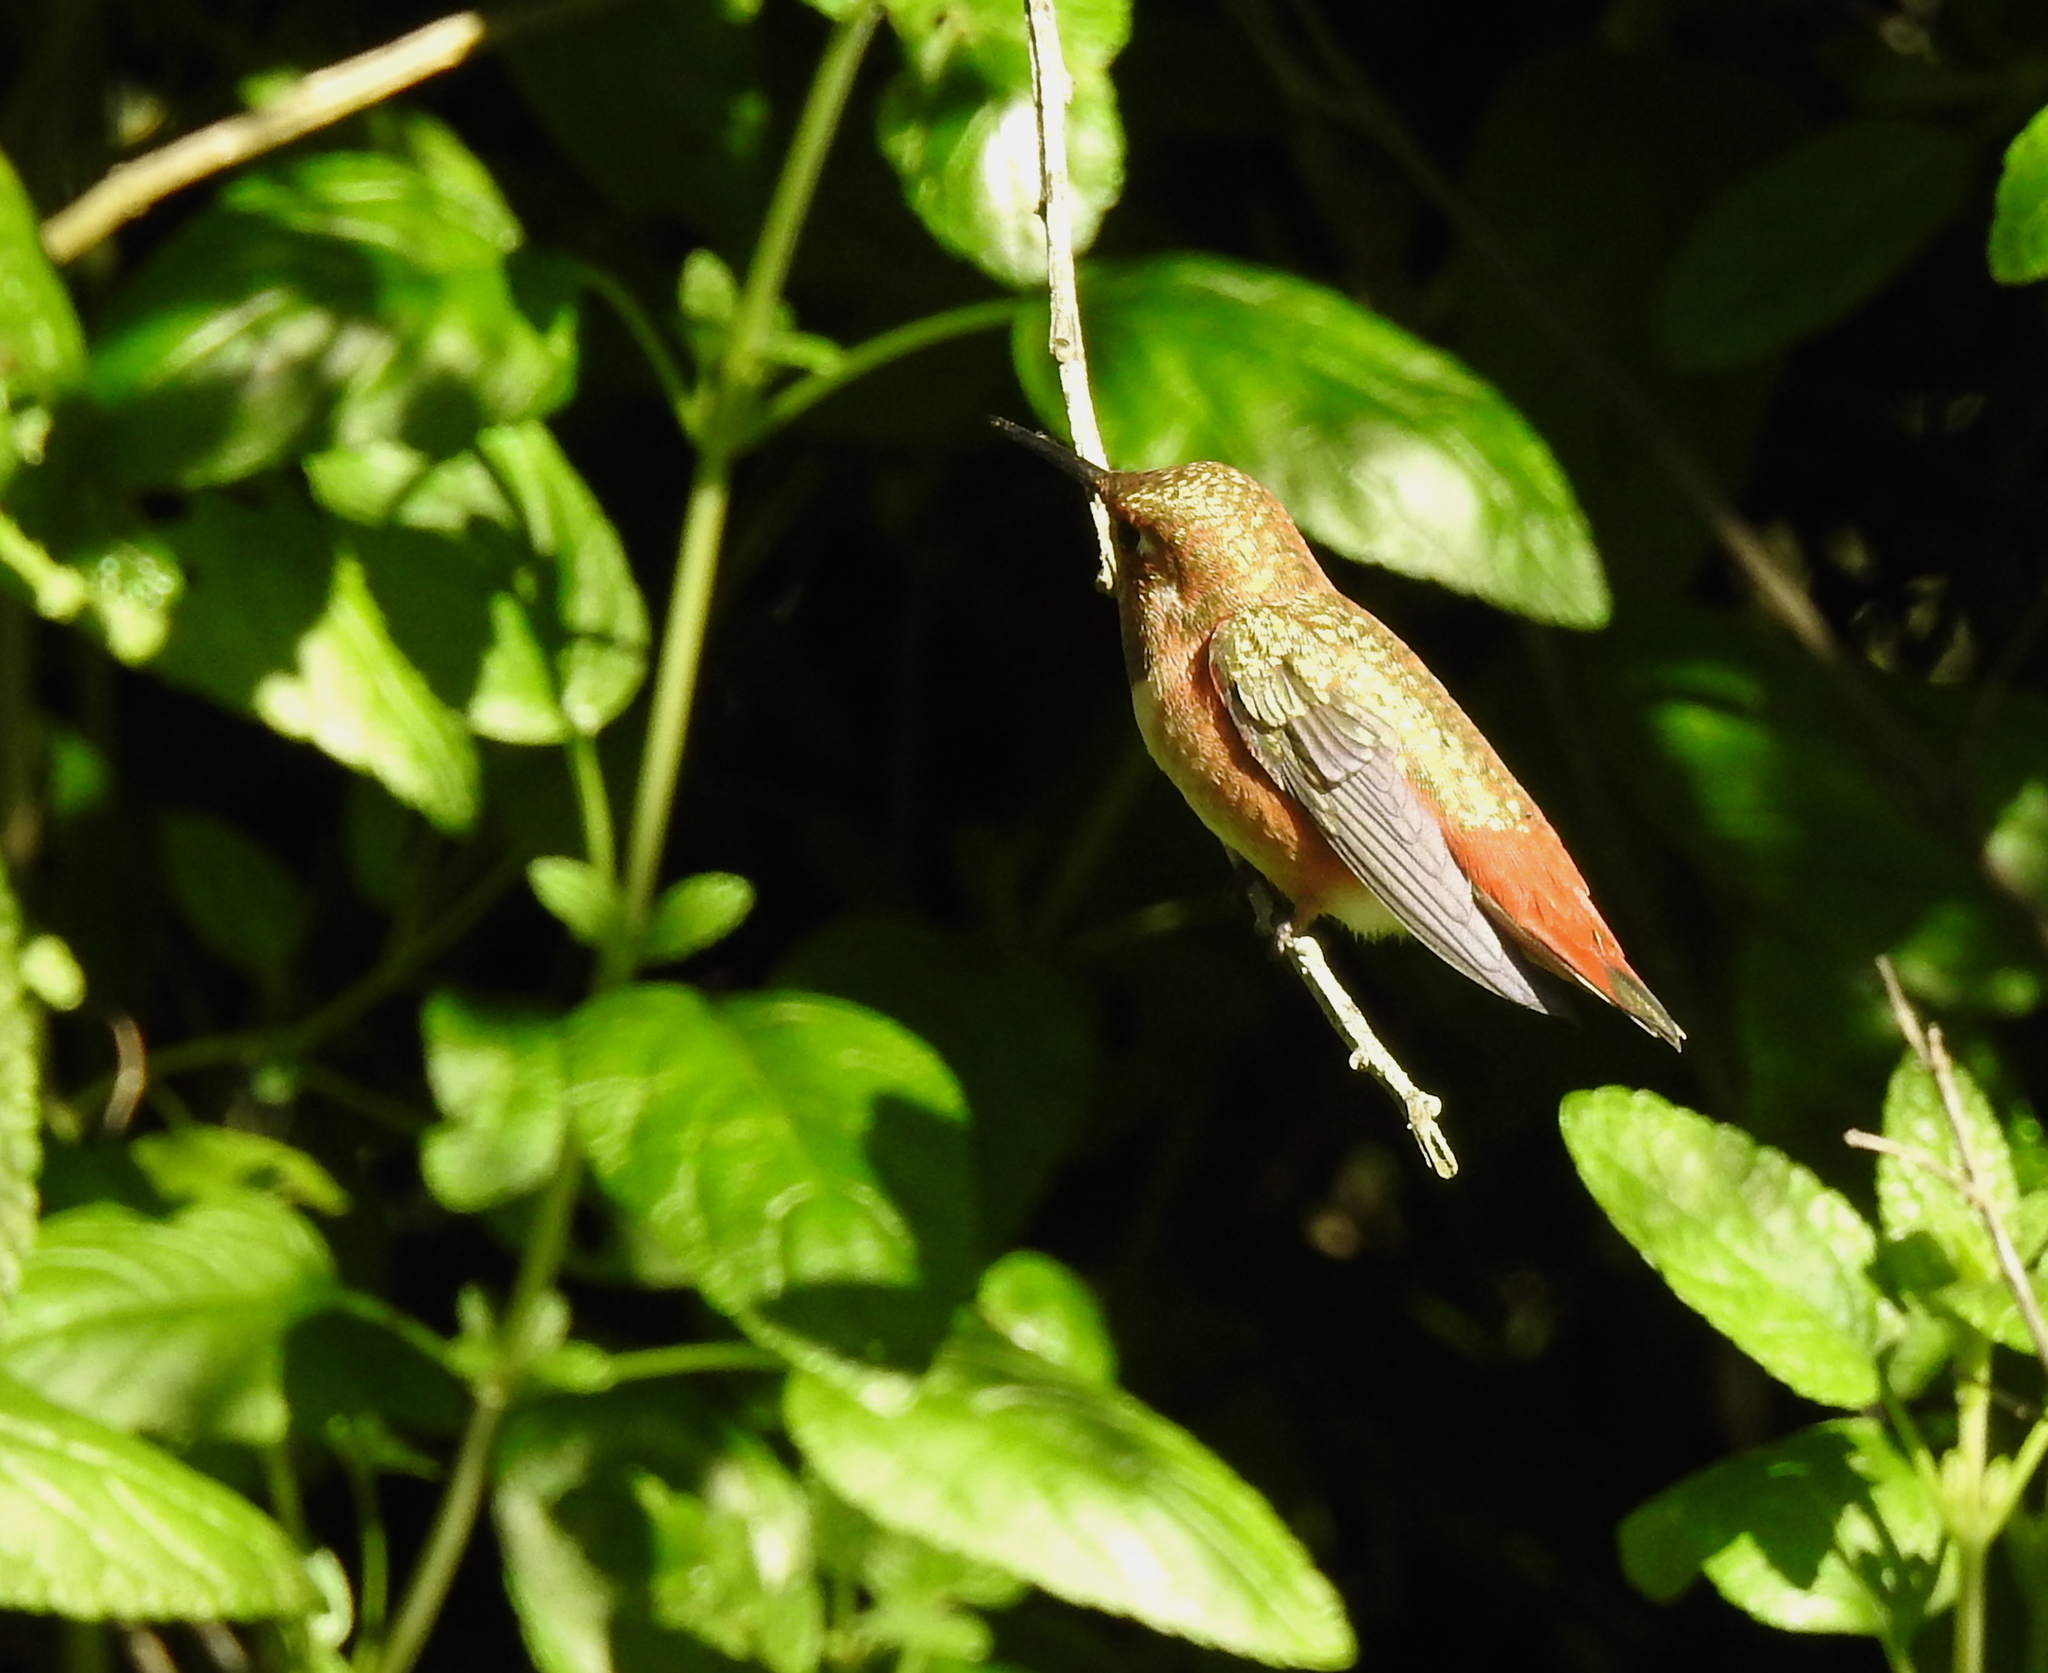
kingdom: Animalia
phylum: Chordata
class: Aves
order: Apodiformes
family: Trochilidae
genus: Selasphorus
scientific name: Selasphorus sasin
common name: Allen's hummingbird
